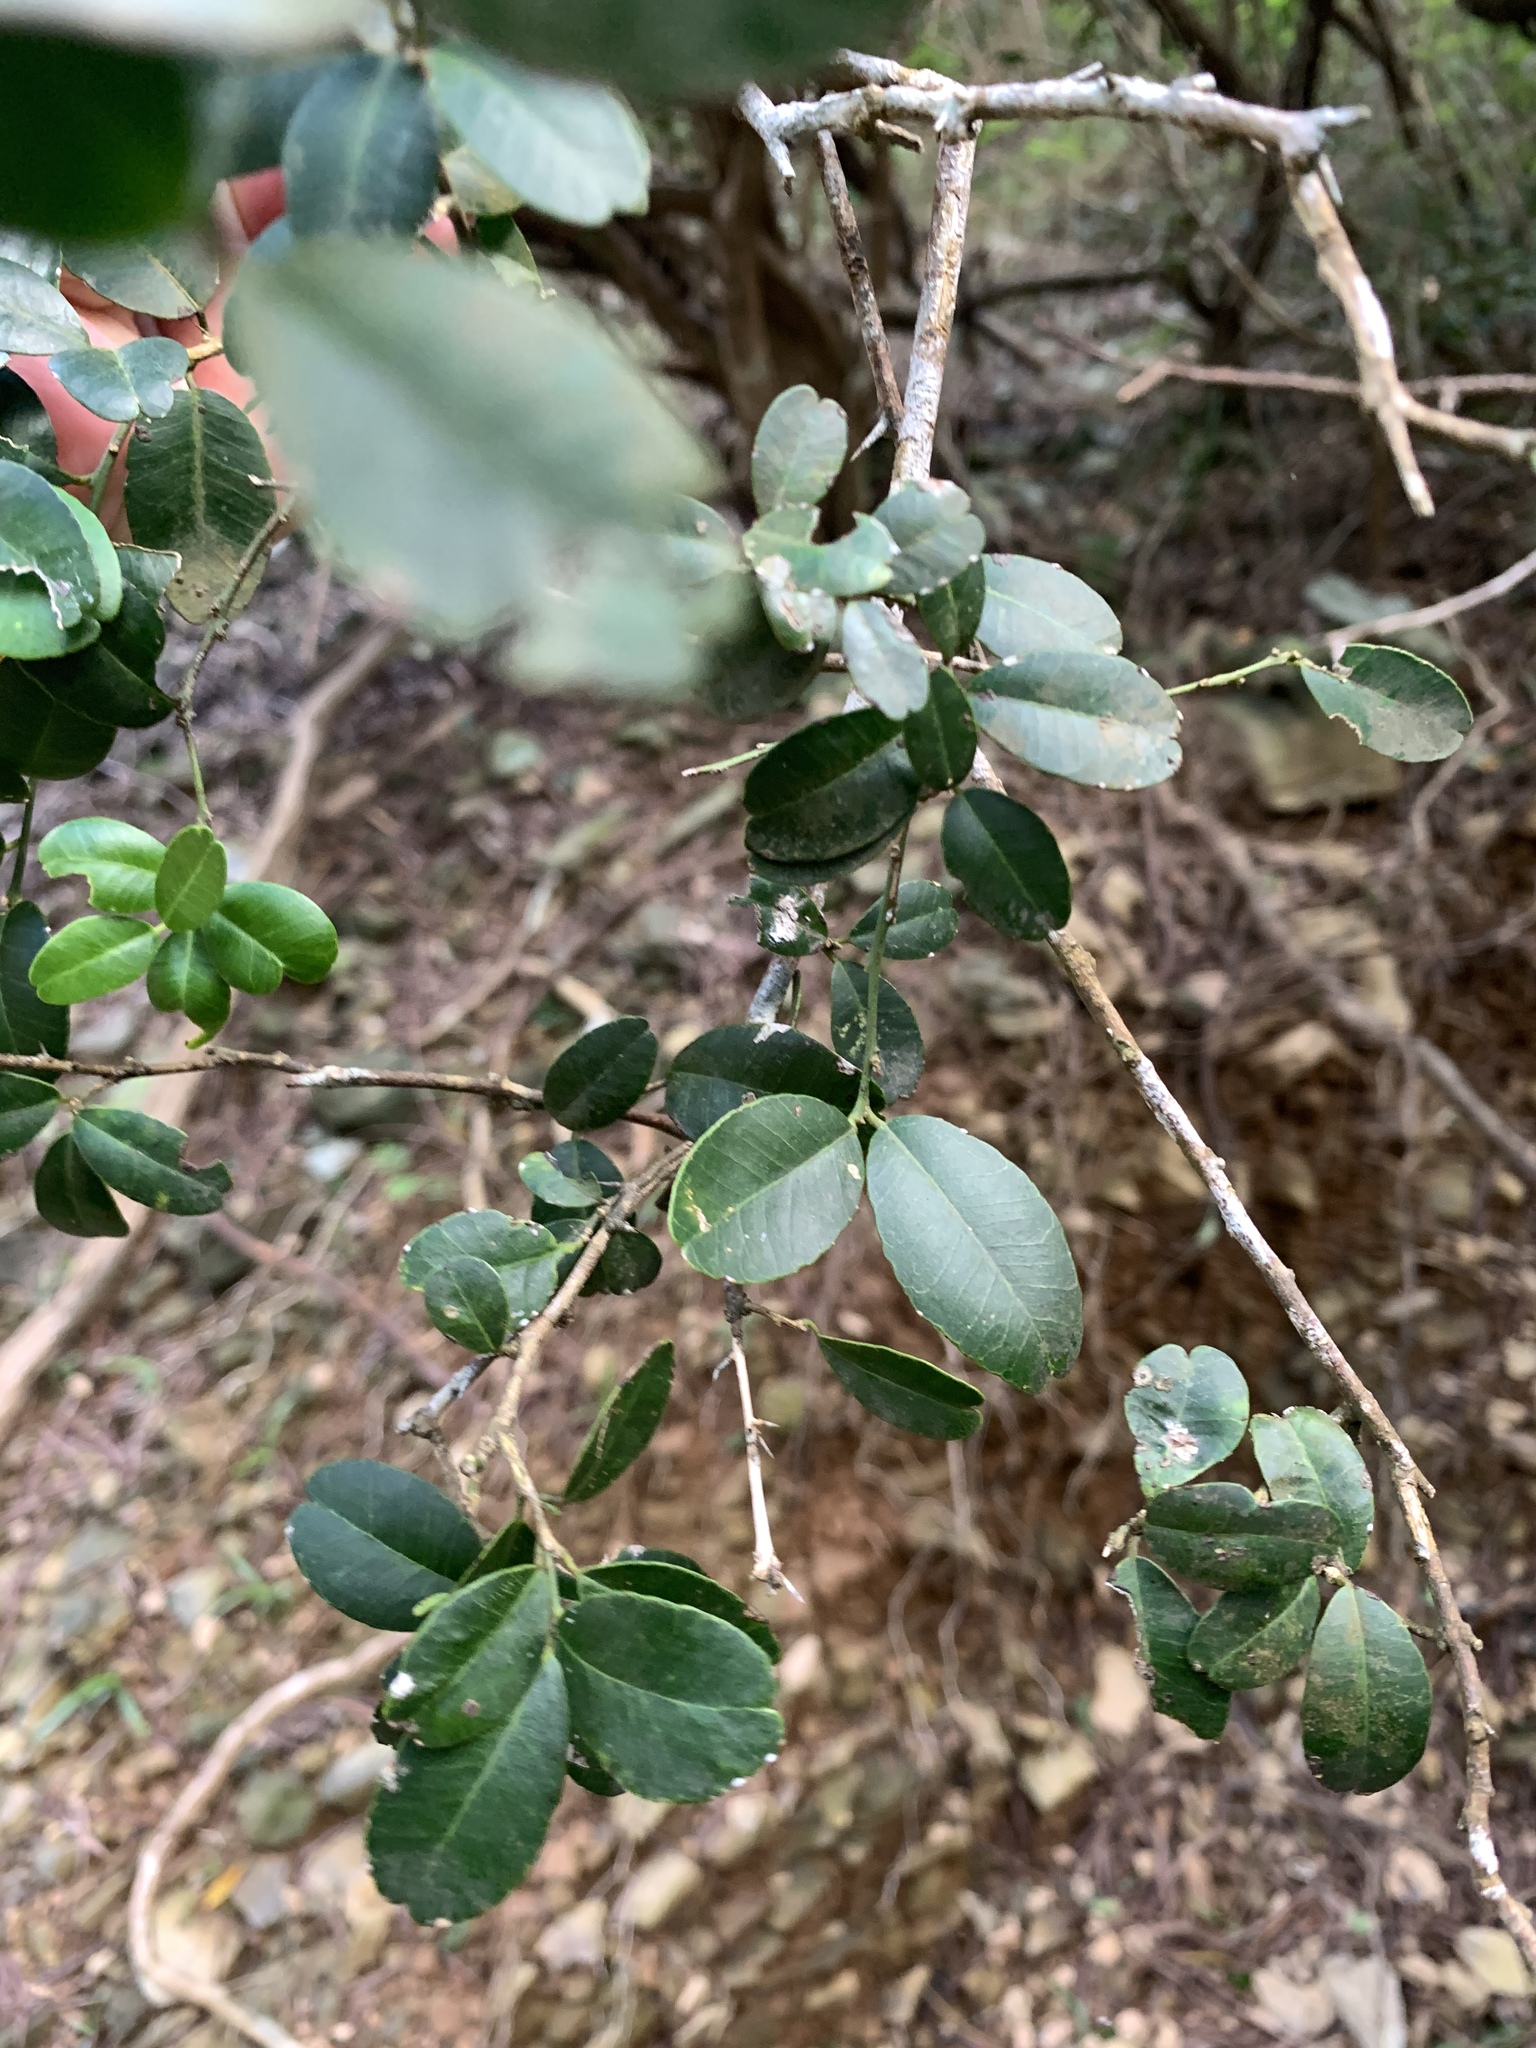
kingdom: Plantae
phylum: Tracheophyta
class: Magnoliopsida
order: Sapindales
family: Rutaceae
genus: Atalantia
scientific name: Atalantia buxifolia
